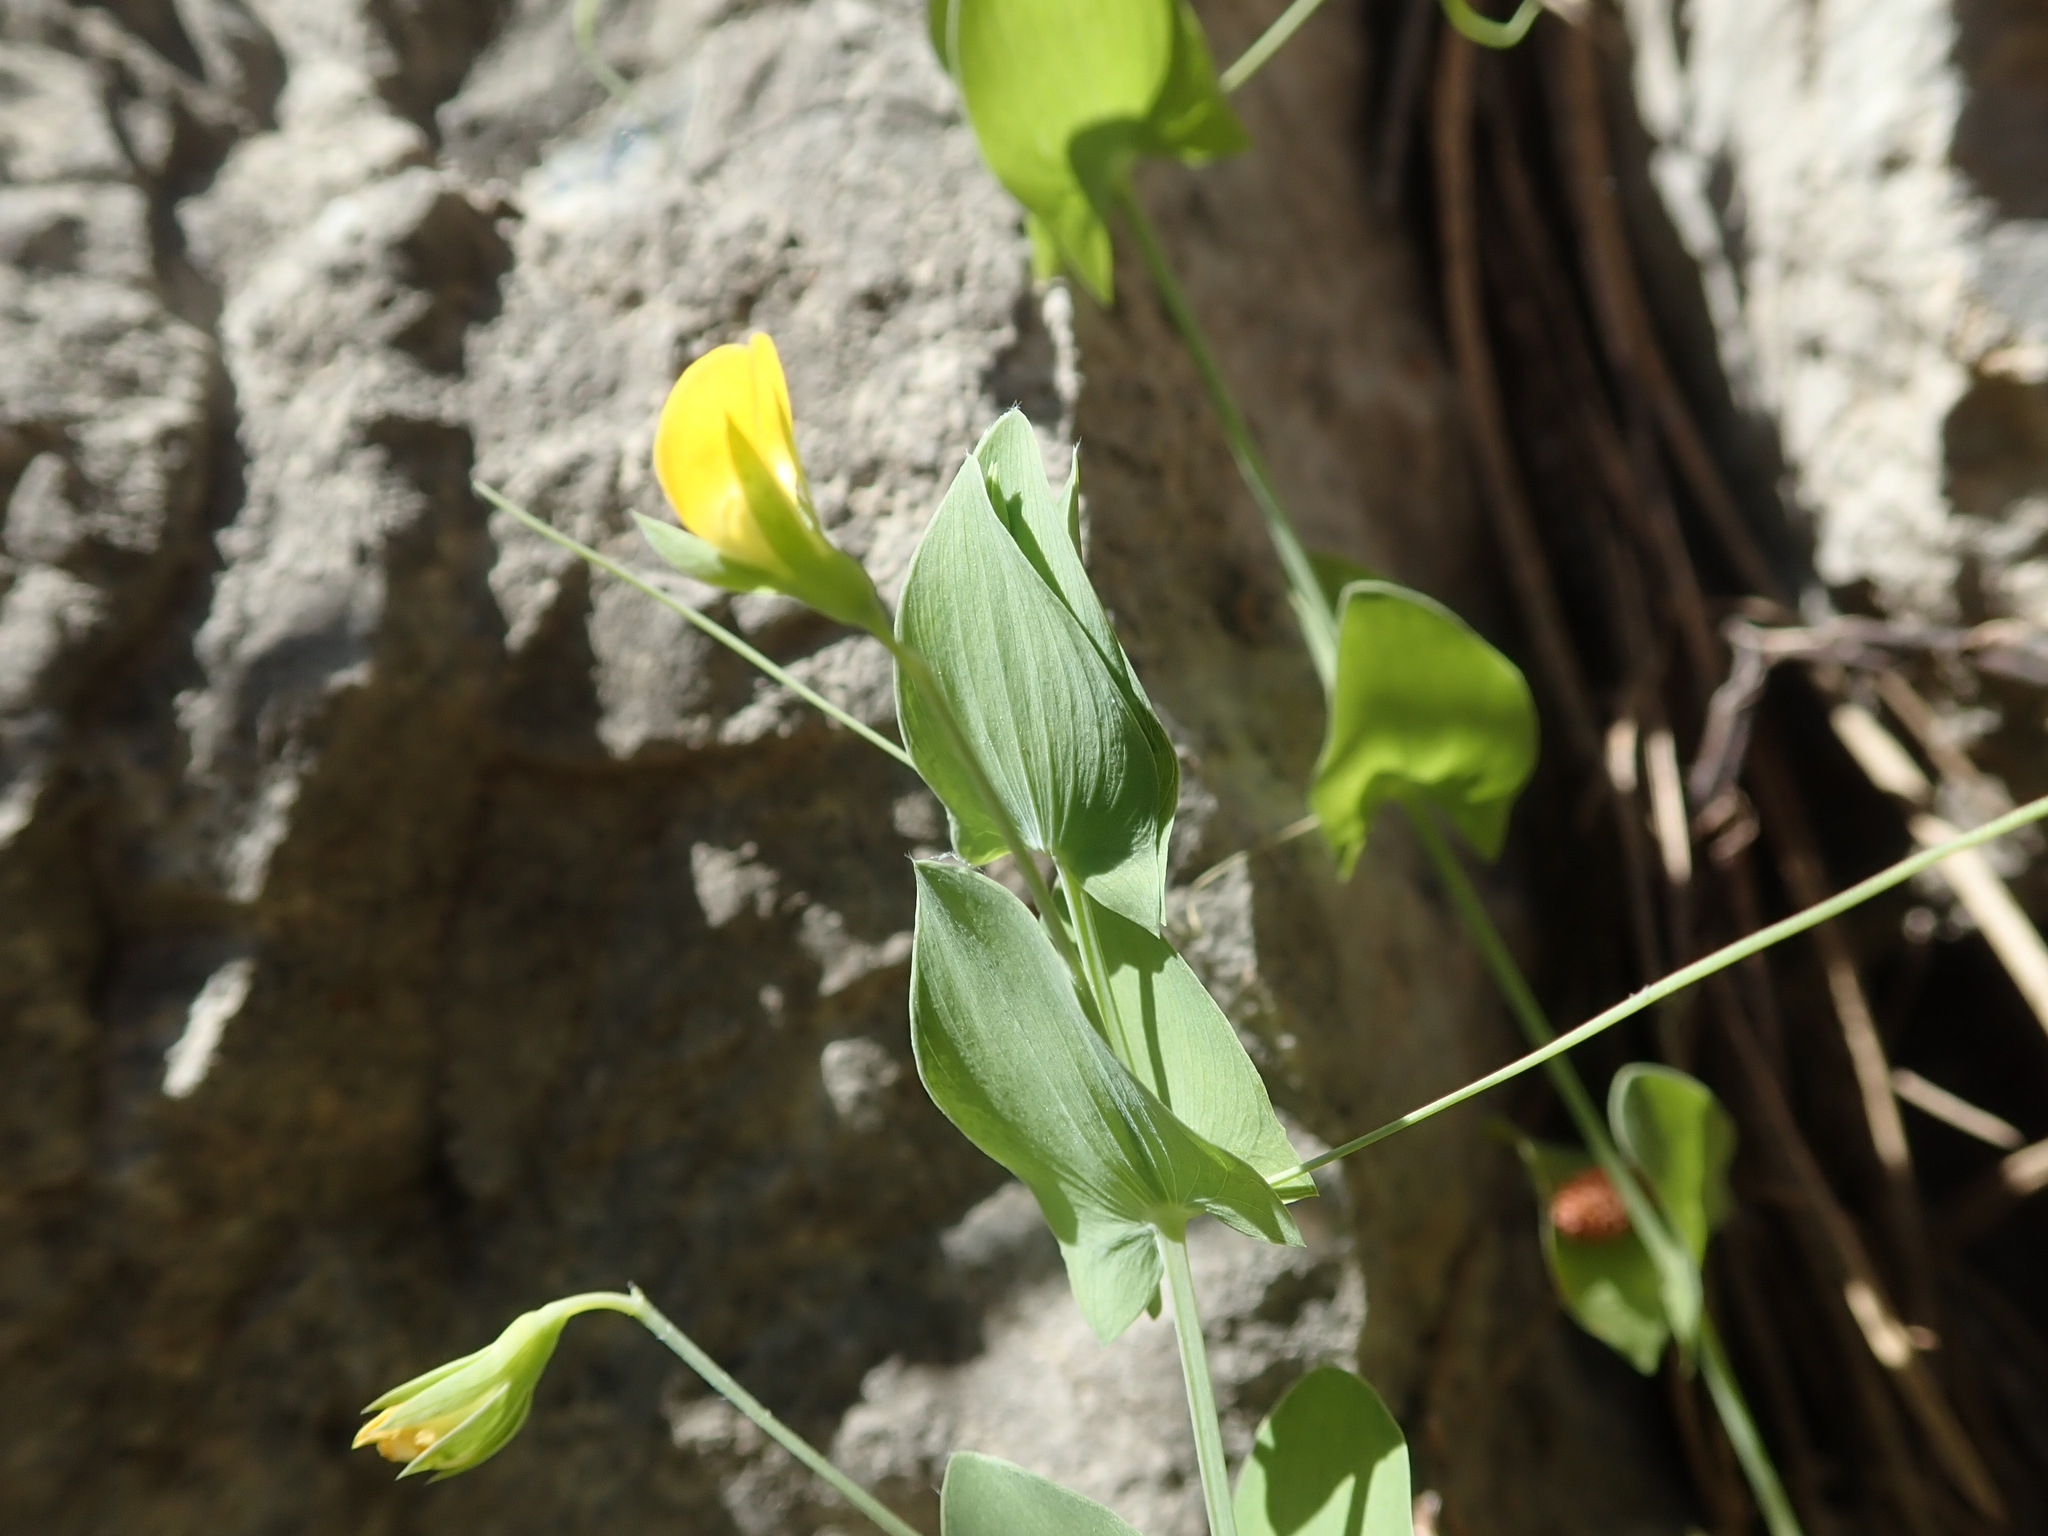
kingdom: Plantae
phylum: Tracheophyta
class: Magnoliopsida
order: Fabales
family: Fabaceae
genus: Lathyrus
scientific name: Lathyrus aphaca
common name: Yellow vetchling
